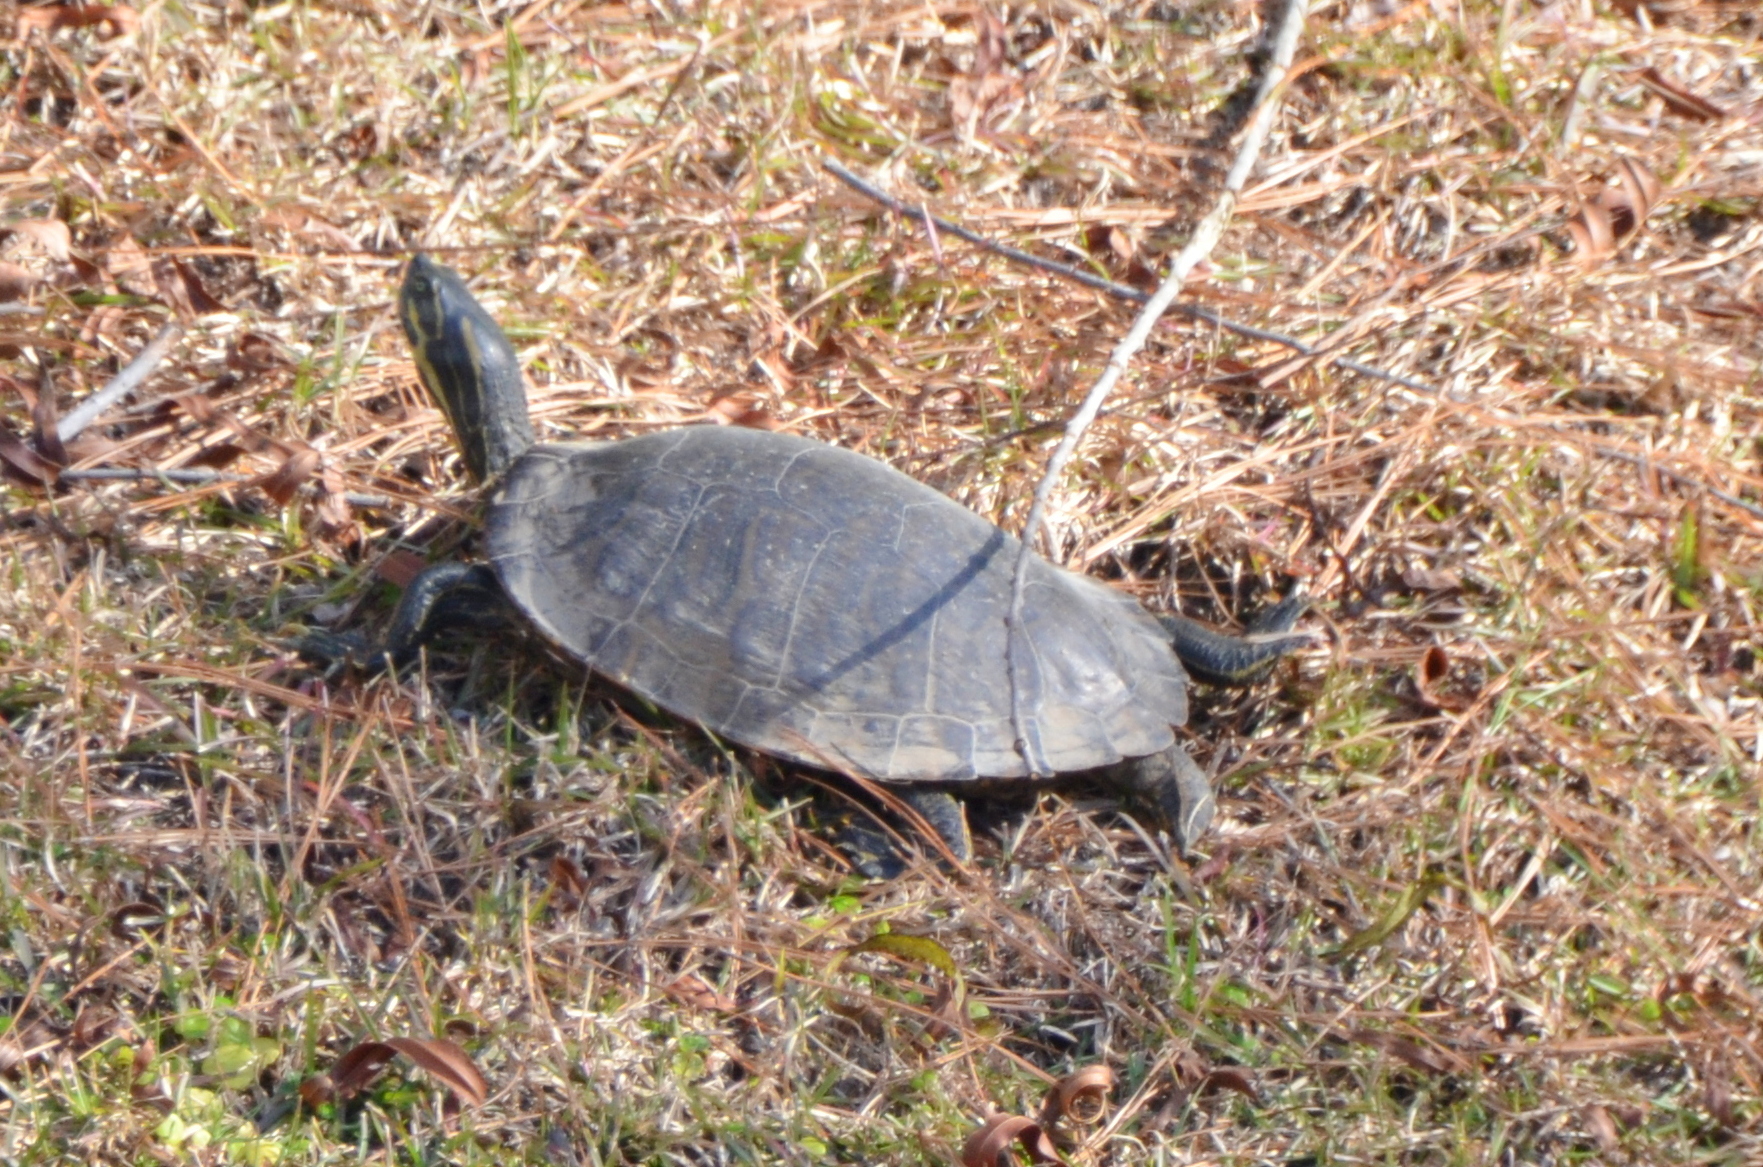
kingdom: Animalia
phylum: Chordata
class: Testudines
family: Emydidae
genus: Pseudemys
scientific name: Pseudemys concinna
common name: Eastern river cooter
